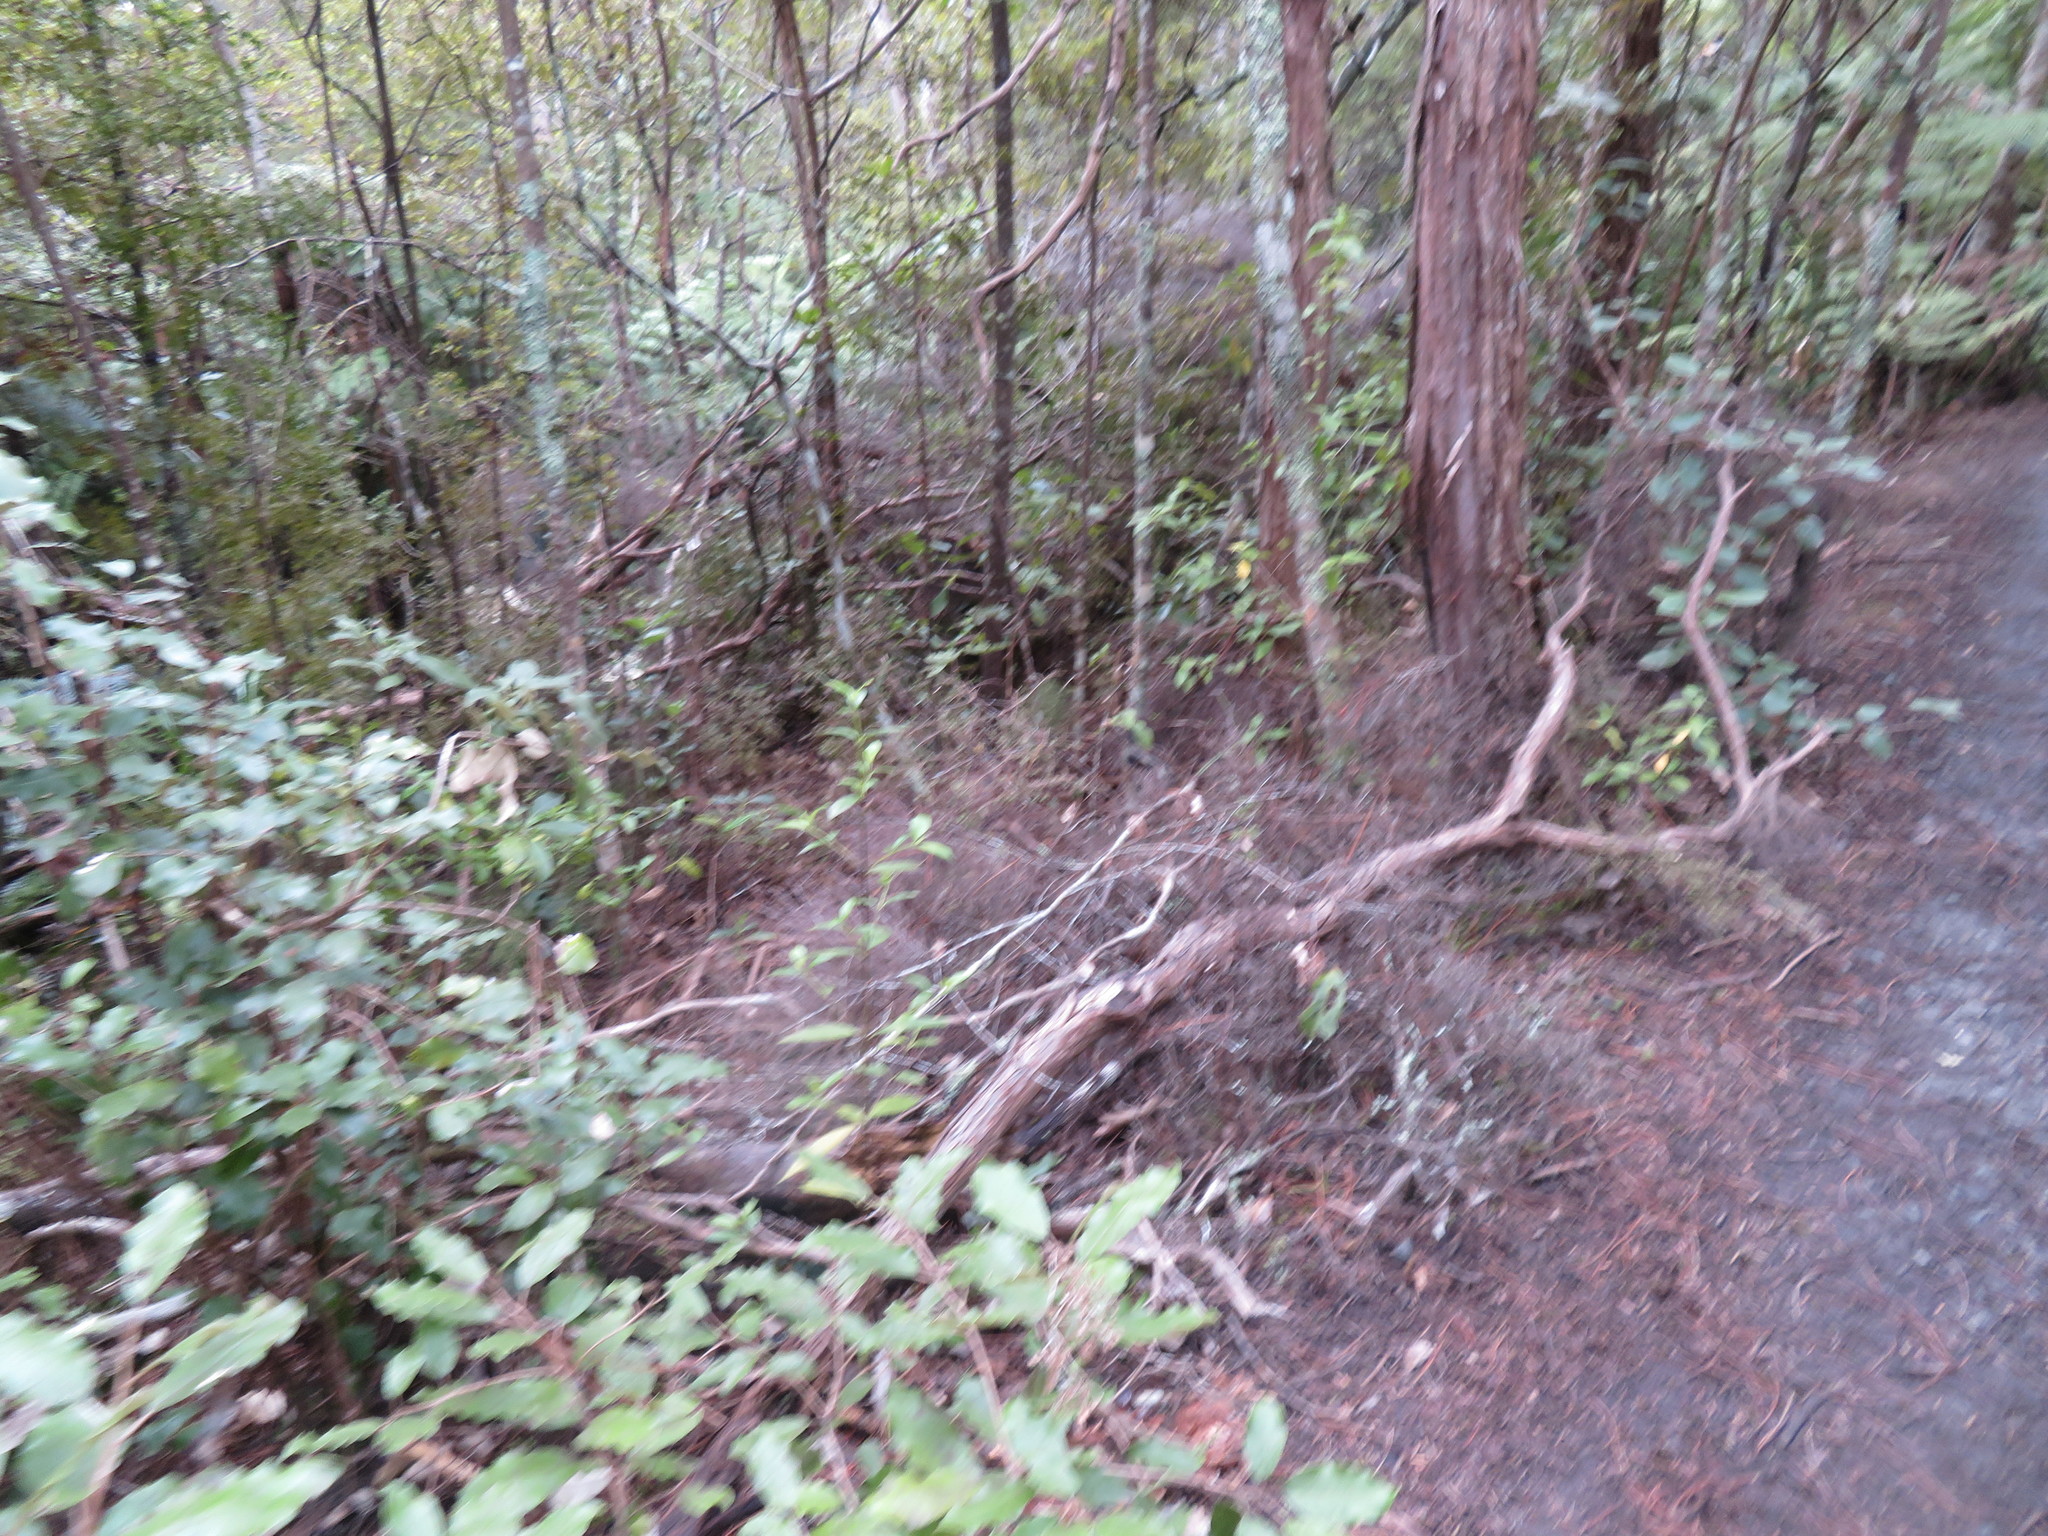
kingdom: Plantae
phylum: Tracheophyta
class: Pinopsida
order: Pinales
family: Phyllocladaceae
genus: Phyllocladus
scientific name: Phyllocladus trichomanoides
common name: Celery pine
